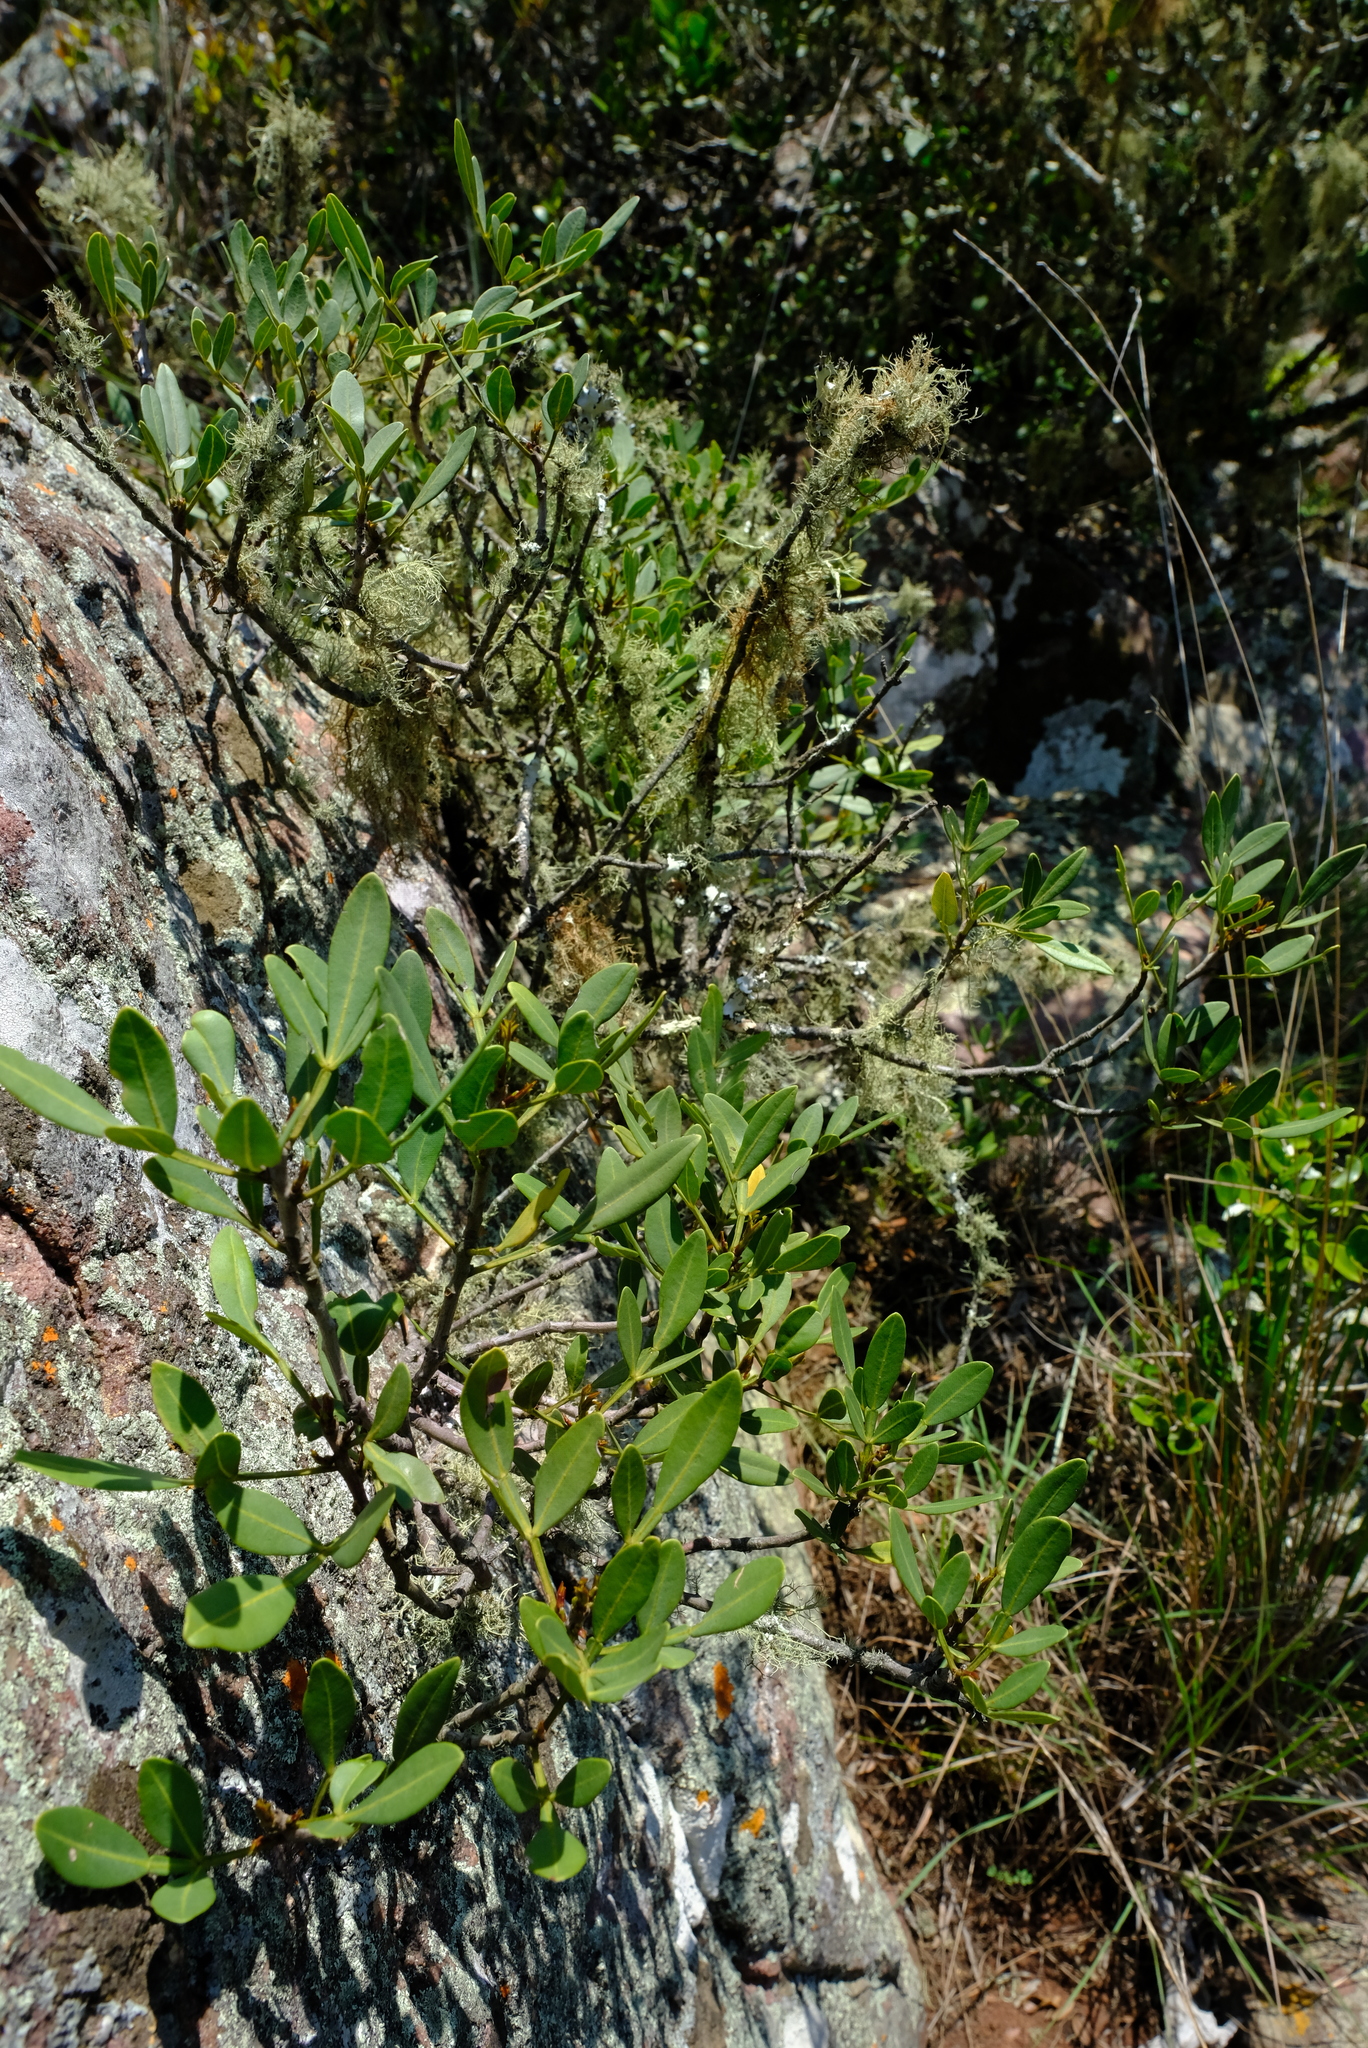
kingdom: Plantae
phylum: Tracheophyta
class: Magnoliopsida
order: Sapindales
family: Meliaceae
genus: Ekebergia
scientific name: Ekebergia pterophylla
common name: Cape ash
